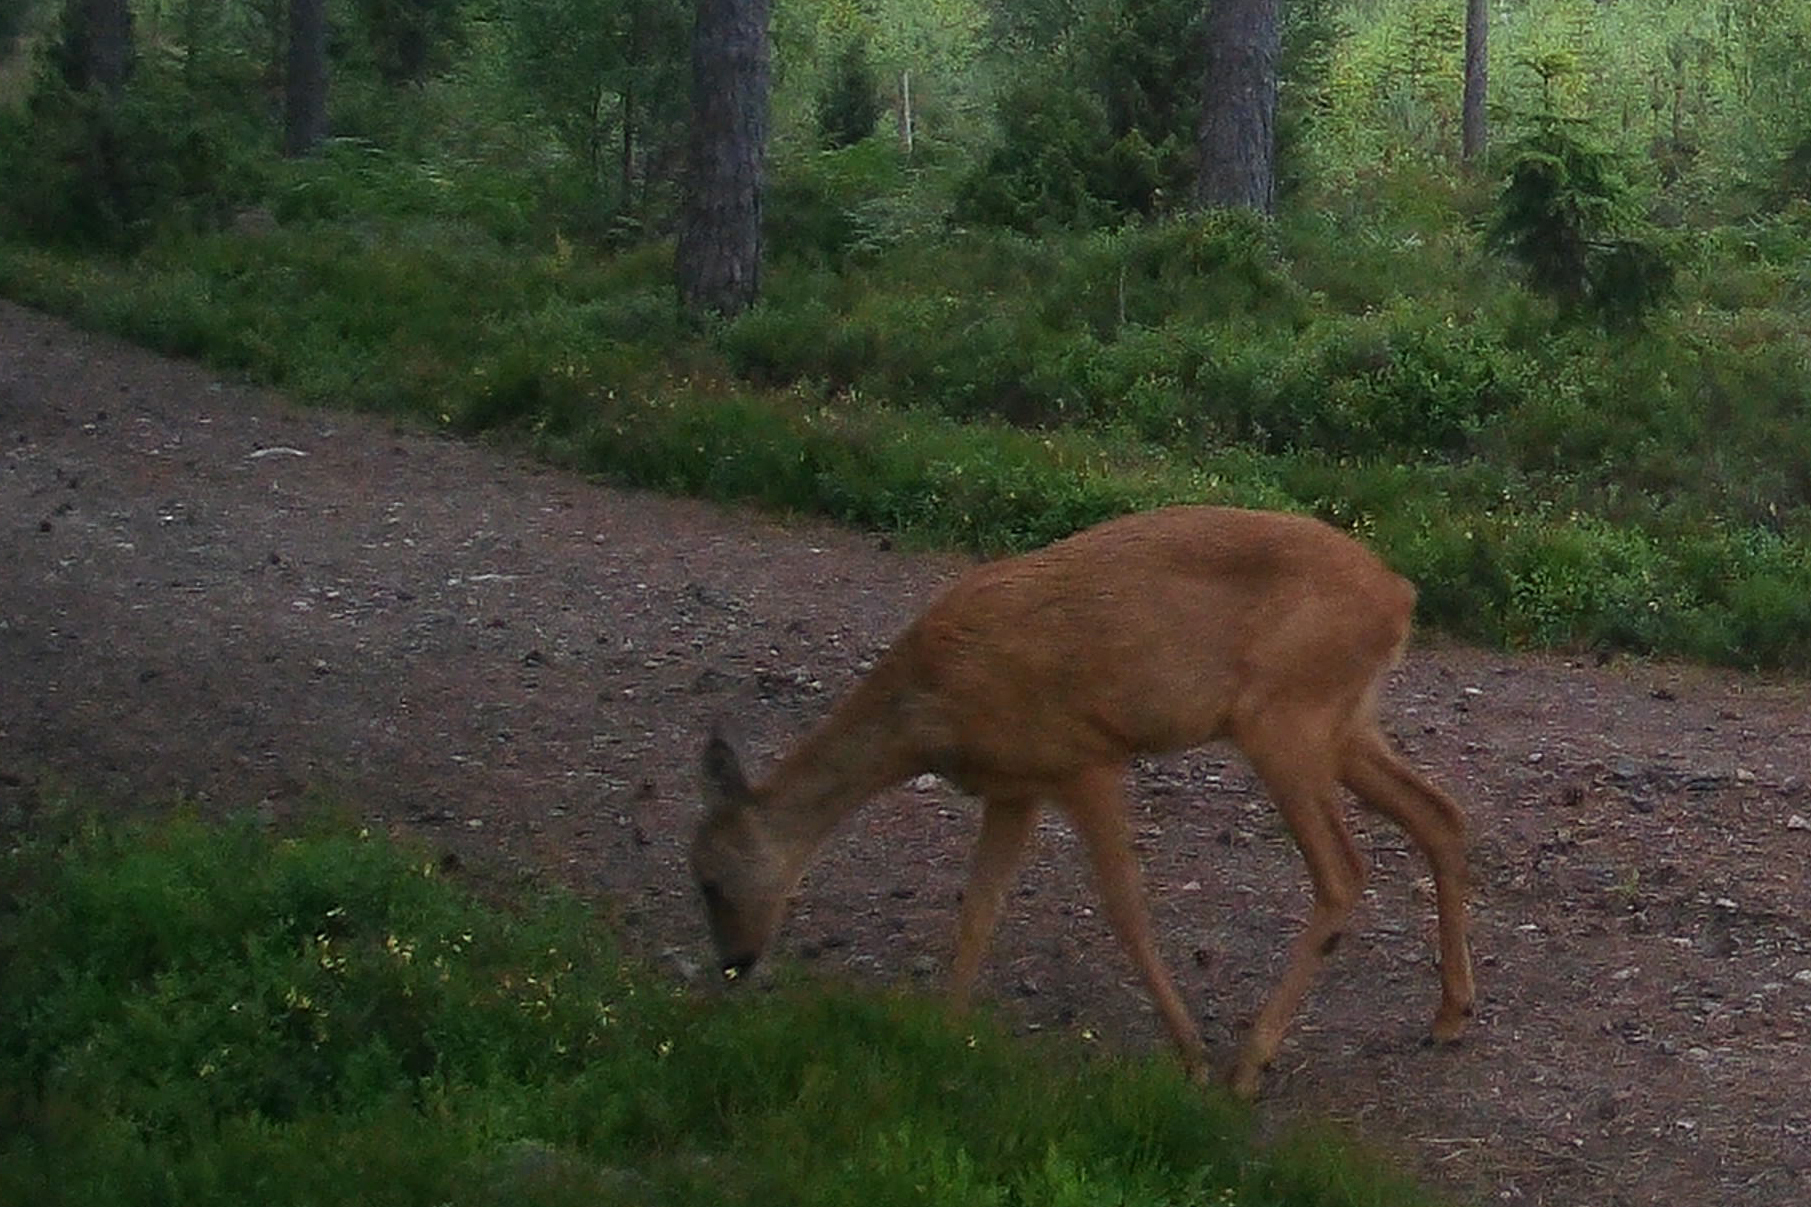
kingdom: Animalia
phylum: Chordata
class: Mammalia
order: Artiodactyla
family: Cervidae
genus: Capreolus
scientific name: Capreolus capreolus
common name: Western roe deer
